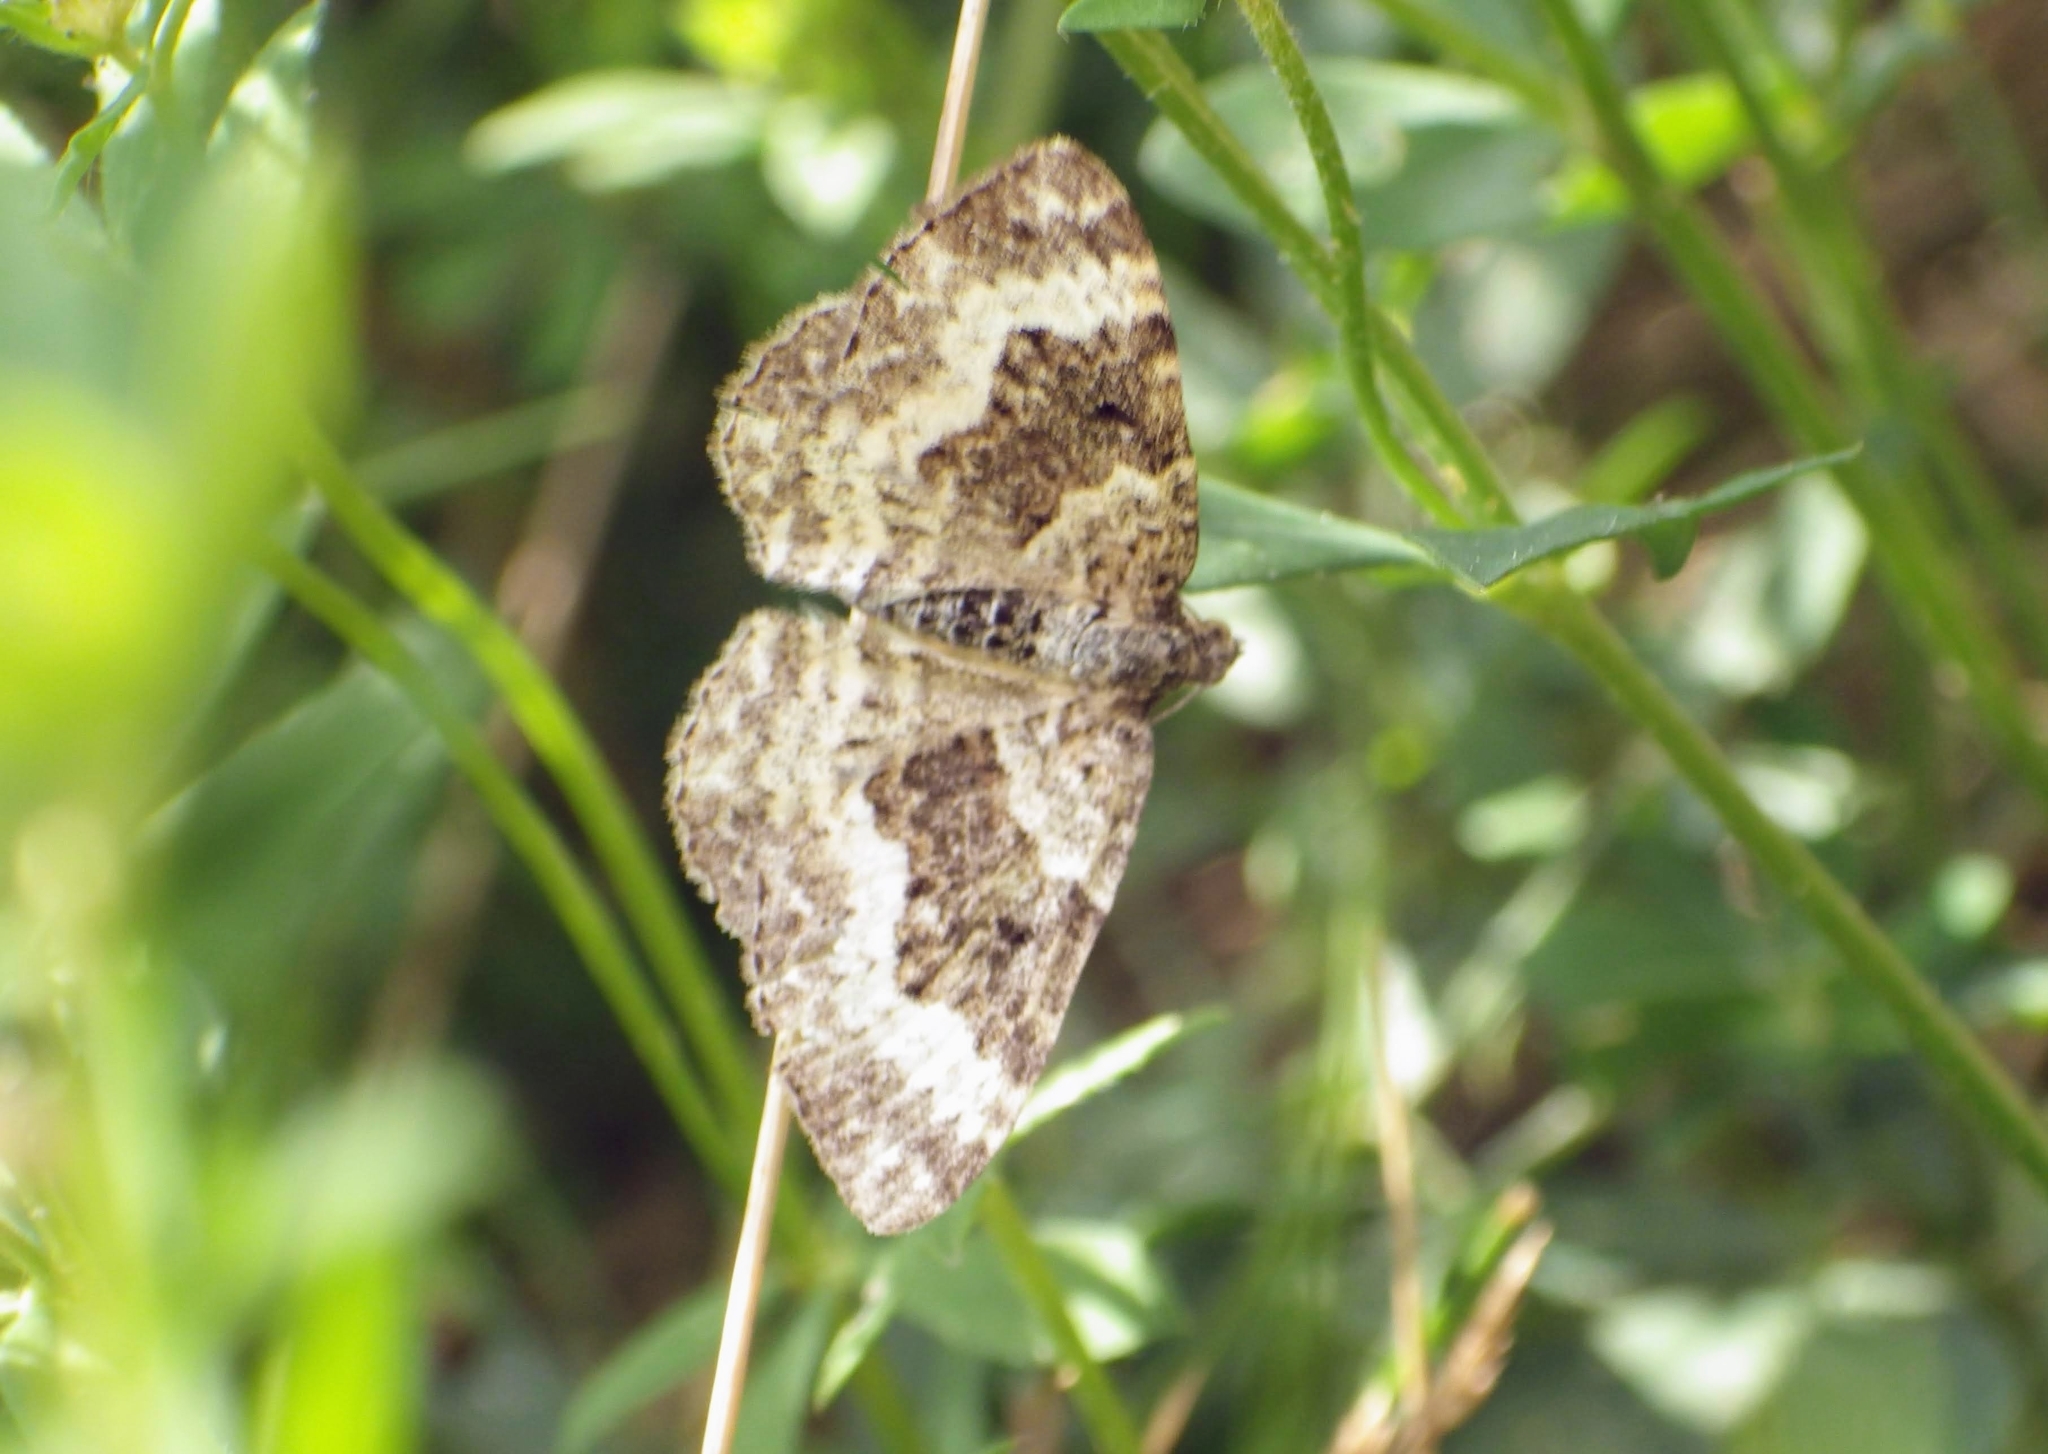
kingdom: Animalia
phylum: Arthropoda
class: Insecta
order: Lepidoptera
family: Geometridae
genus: Epirrhoe
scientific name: Epirrhoe alternata
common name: Common carpet
